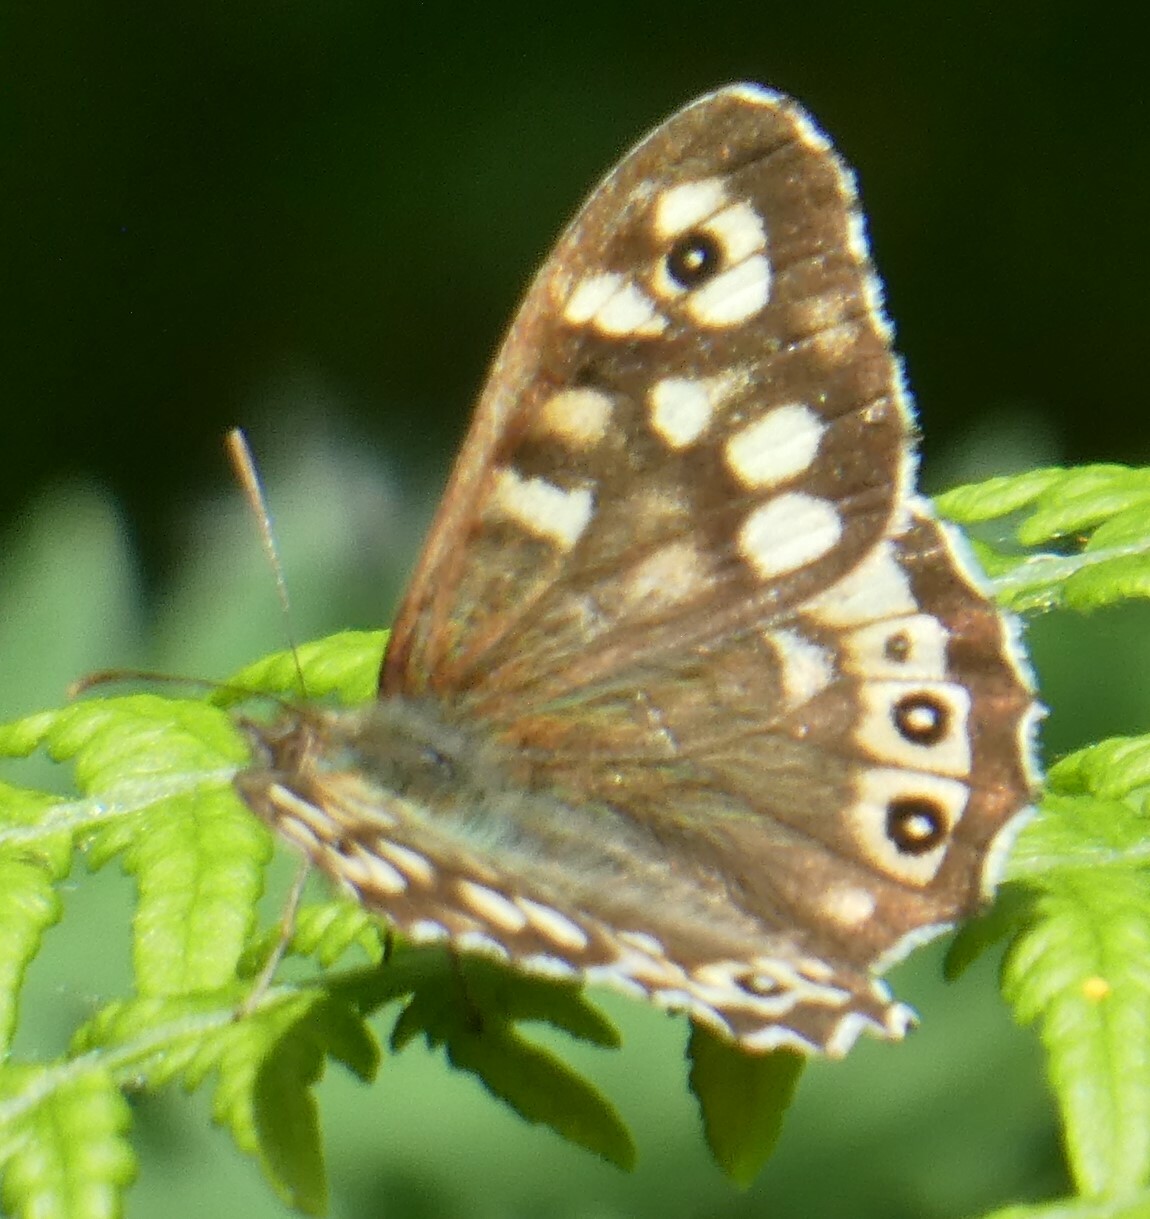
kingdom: Animalia
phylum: Arthropoda
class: Insecta
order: Lepidoptera
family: Nymphalidae
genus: Pararge
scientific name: Pararge aegeria
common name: Speckled wood
